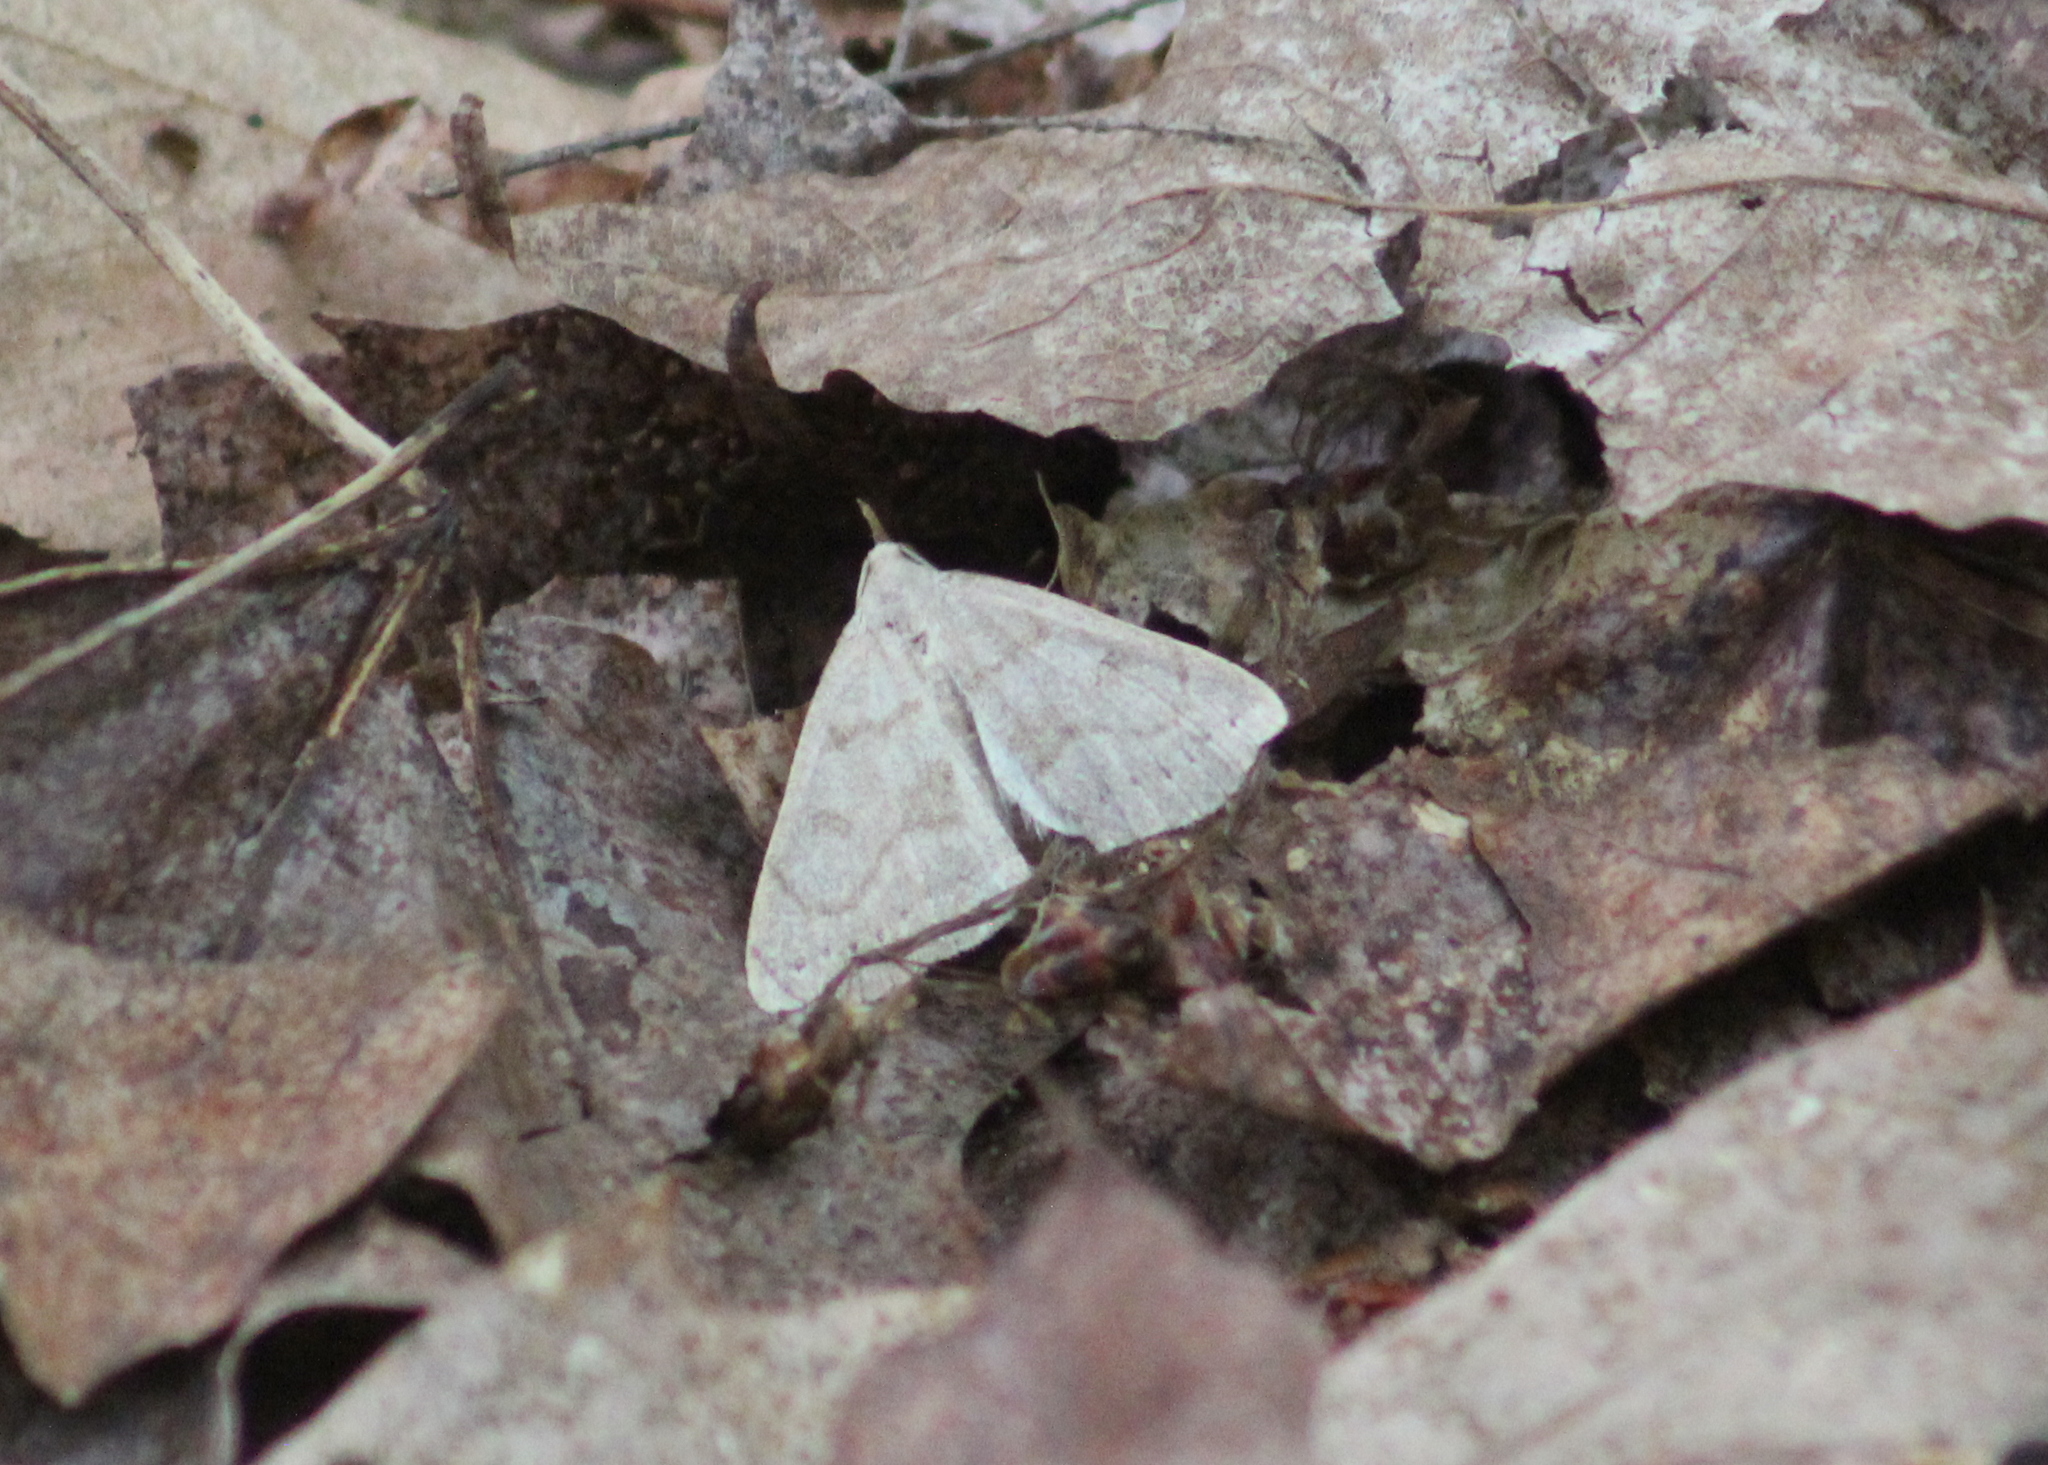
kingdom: Animalia
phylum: Arthropoda
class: Insecta
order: Lepidoptera
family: Erebidae
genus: Macrochilo
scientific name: Macrochilo morbidalis
